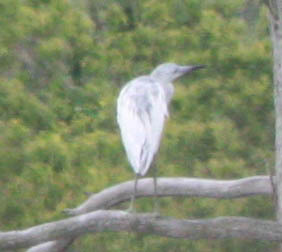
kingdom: Animalia
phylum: Chordata
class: Aves
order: Pelecaniformes
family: Ardeidae
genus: Egretta
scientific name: Egretta caerulea
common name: Little blue heron
